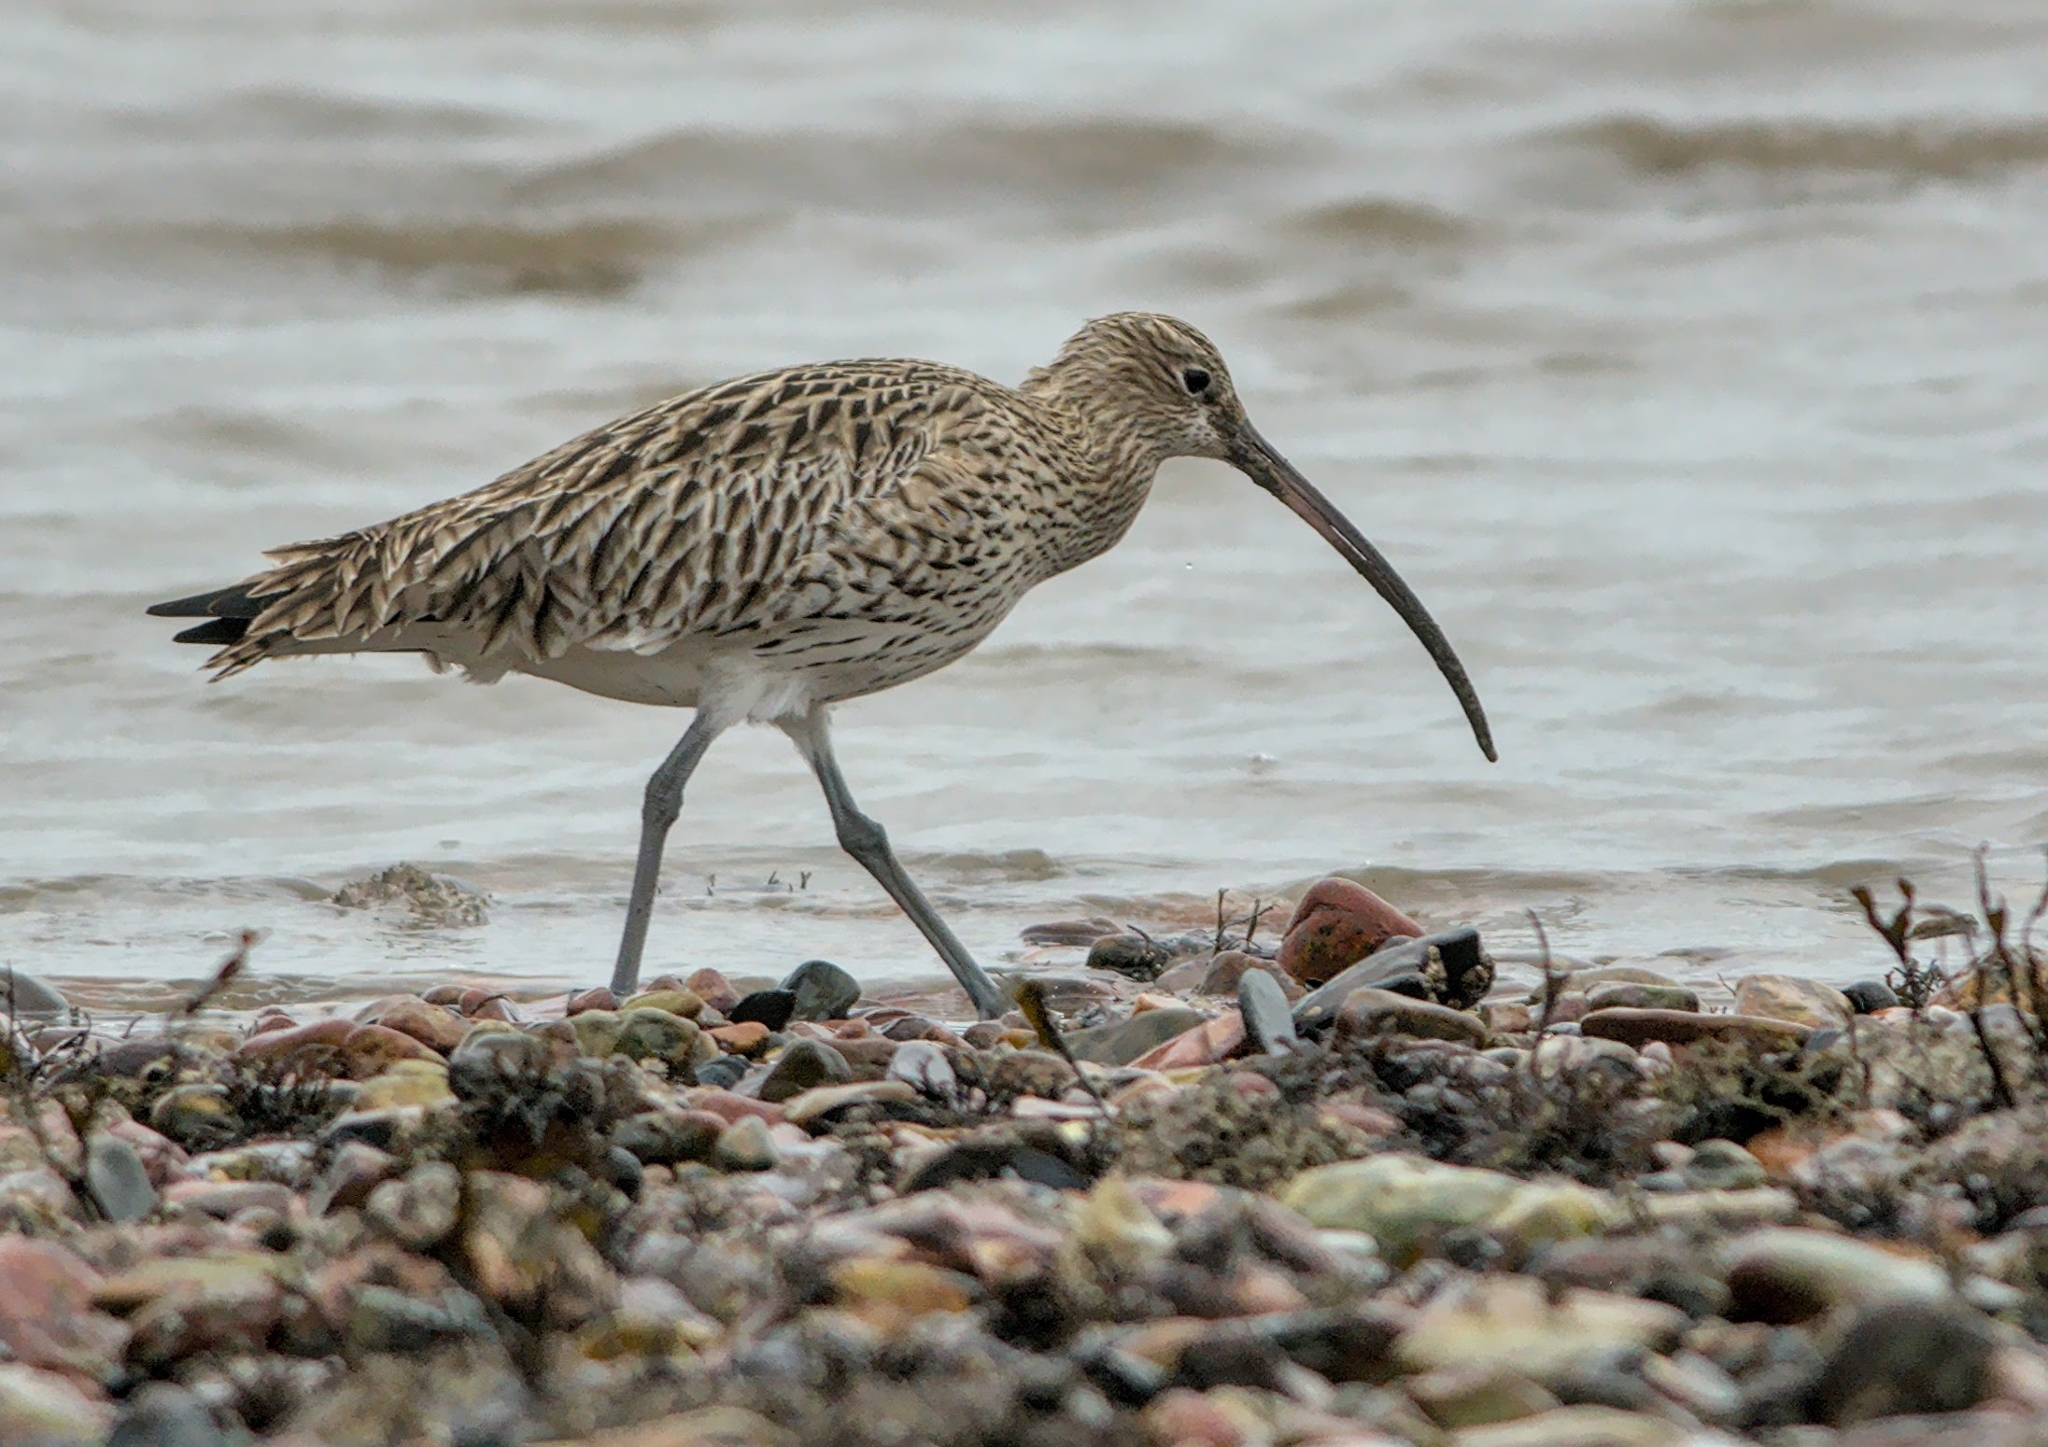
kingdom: Animalia
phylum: Chordata
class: Aves
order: Charadriiformes
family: Scolopacidae
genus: Numenius
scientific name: Numenius arquata
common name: Eurasian curlew
